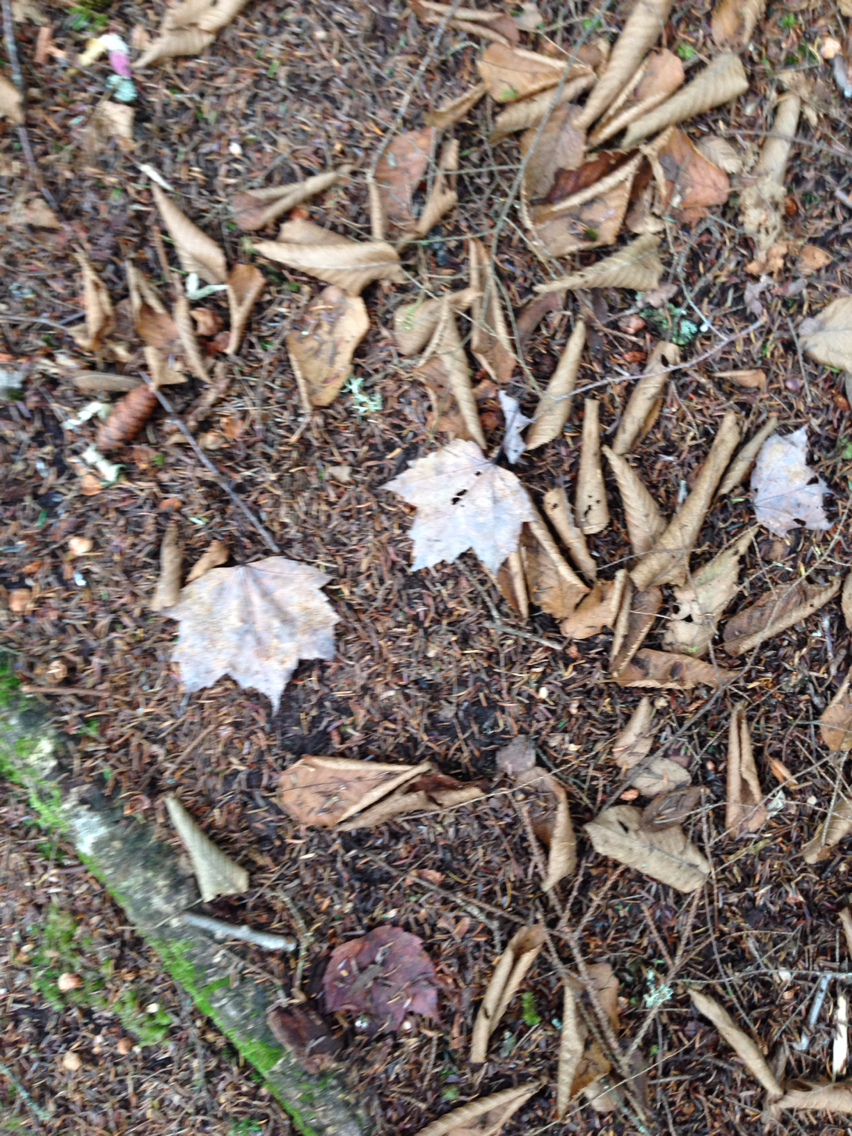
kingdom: Plantae
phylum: Tracheophyta
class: Magnoliopsida
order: Sapindales
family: Sapindaceae
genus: Acer
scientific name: Acer rubrum
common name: Red maple
